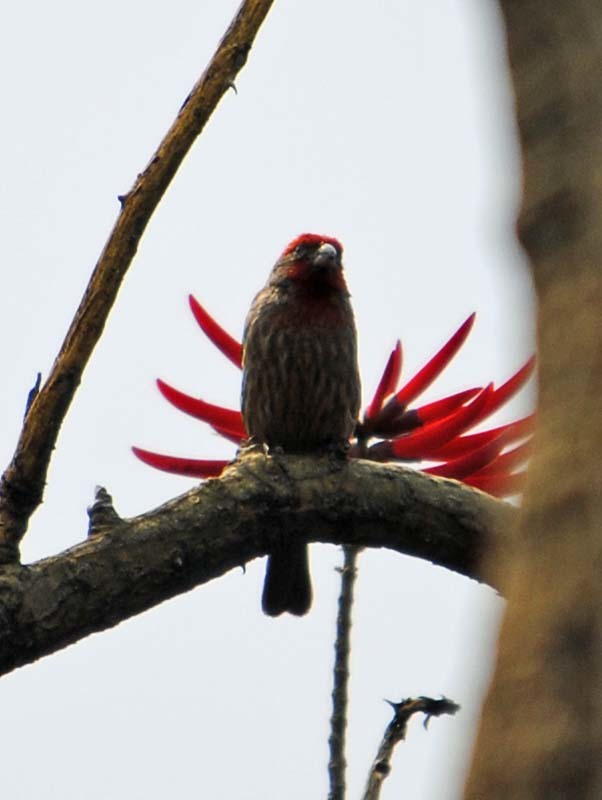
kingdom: Animalia
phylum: Chordata
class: Aves
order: Passeriformes
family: Fringillidae
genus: Haemorhous
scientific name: Haemorhous mexicanus
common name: House finch
